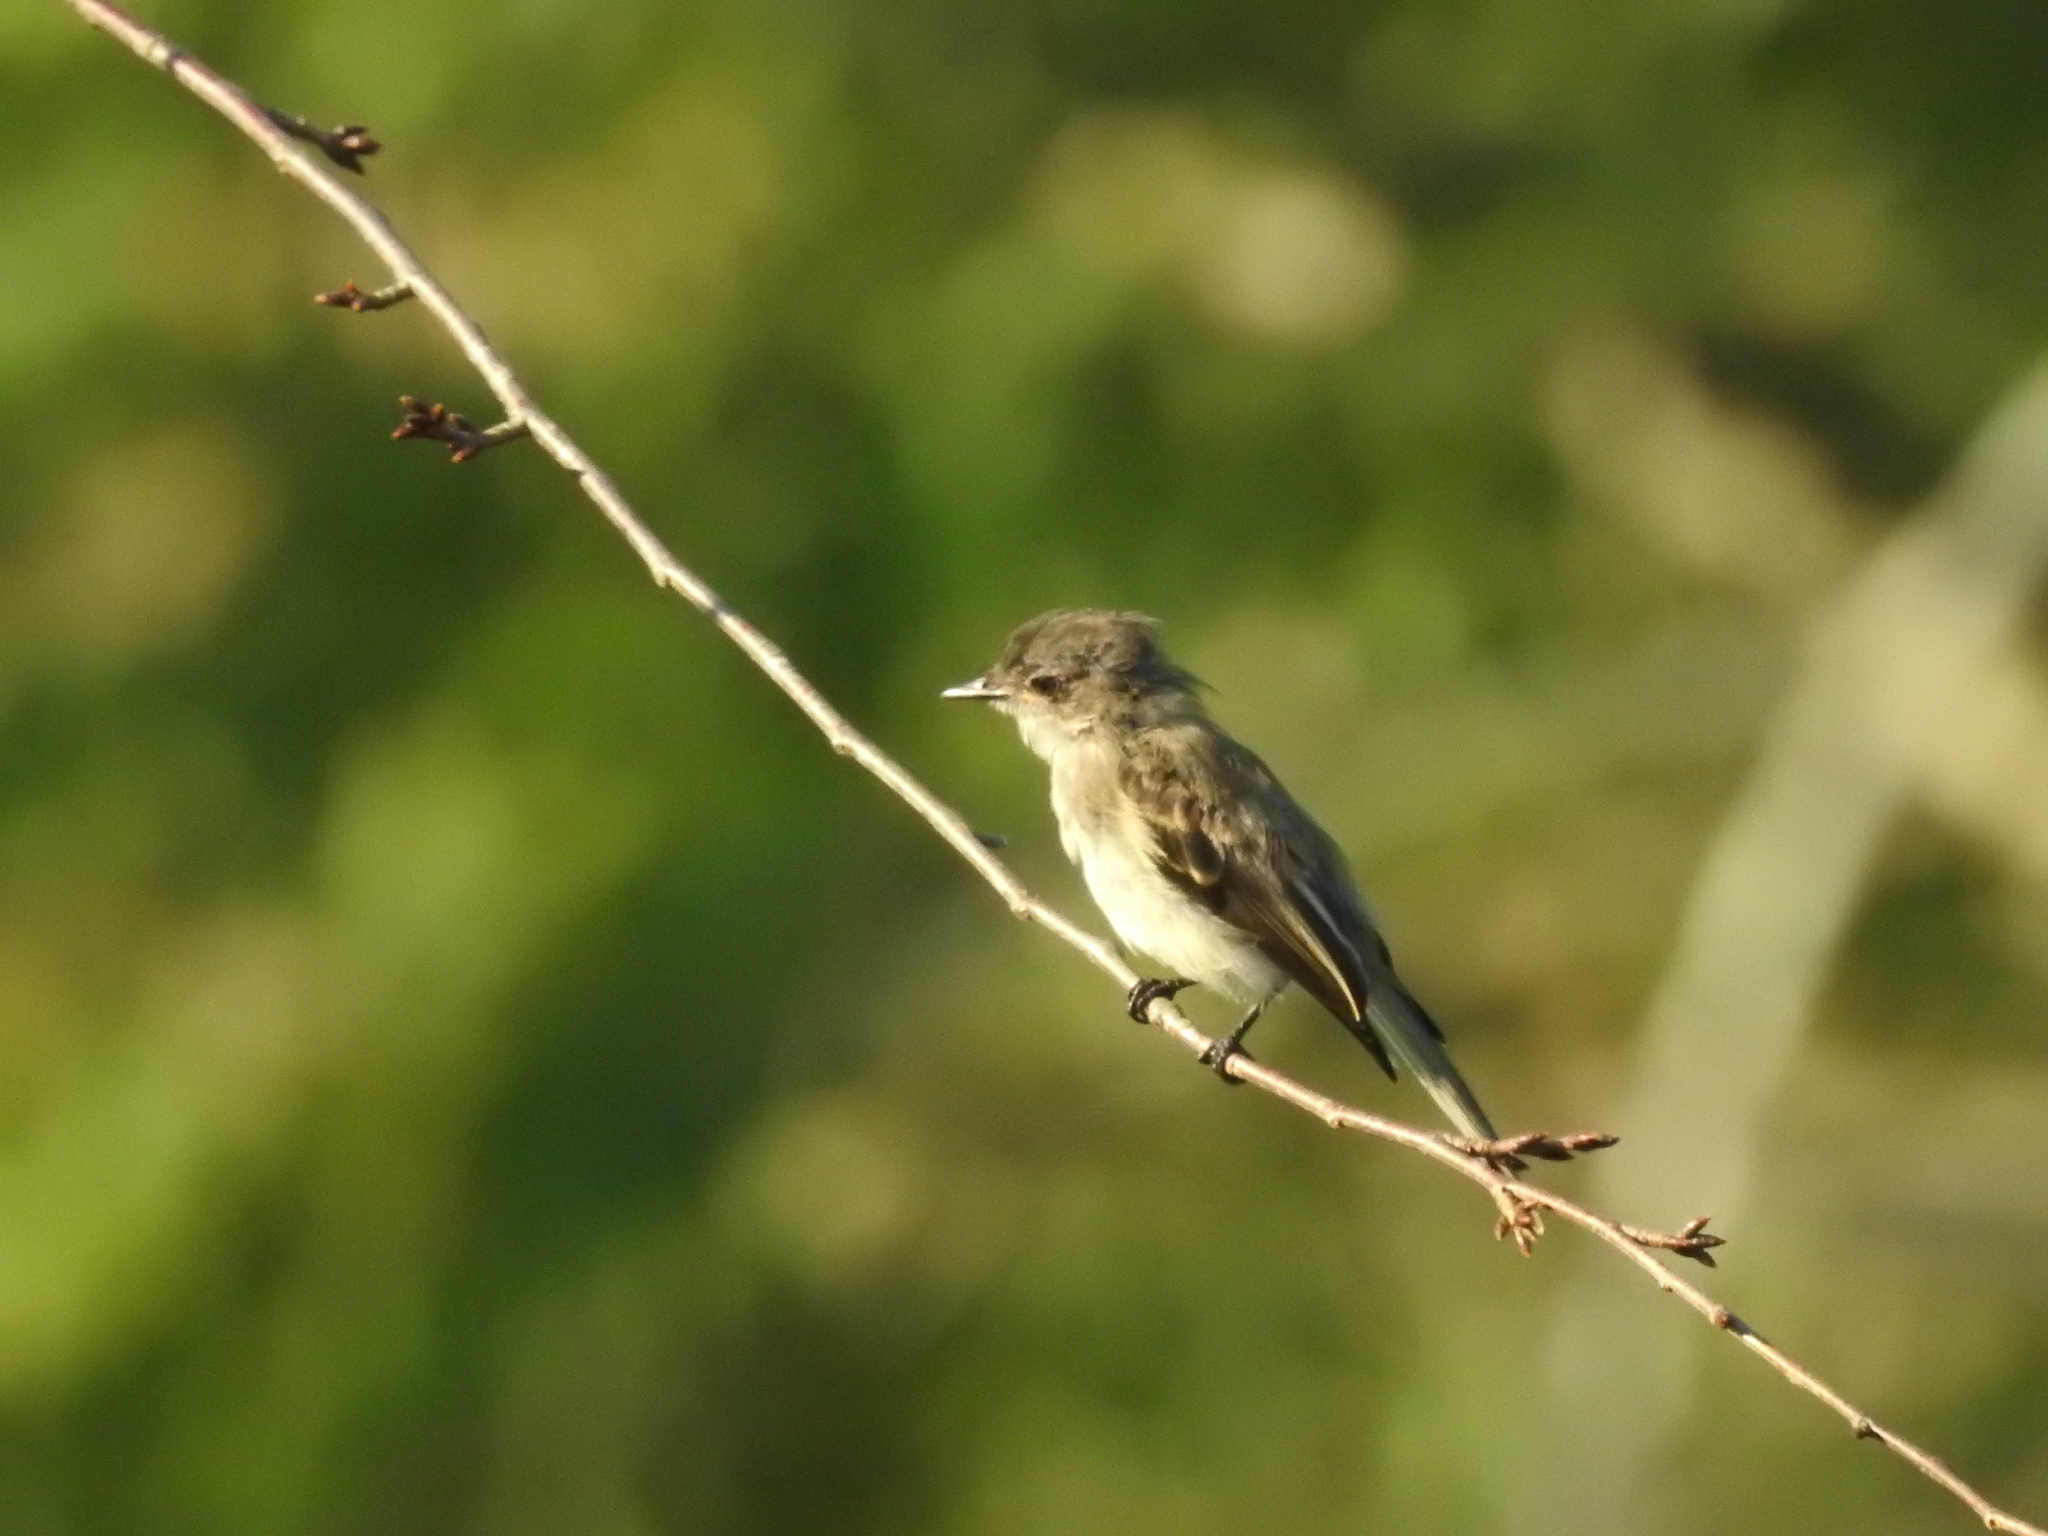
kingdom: Animalia
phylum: Chordata
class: Aves
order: Passeriformes
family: Tyrannidae
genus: Sayornis
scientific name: Sayornis phoebe
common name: Eastern phoebe
